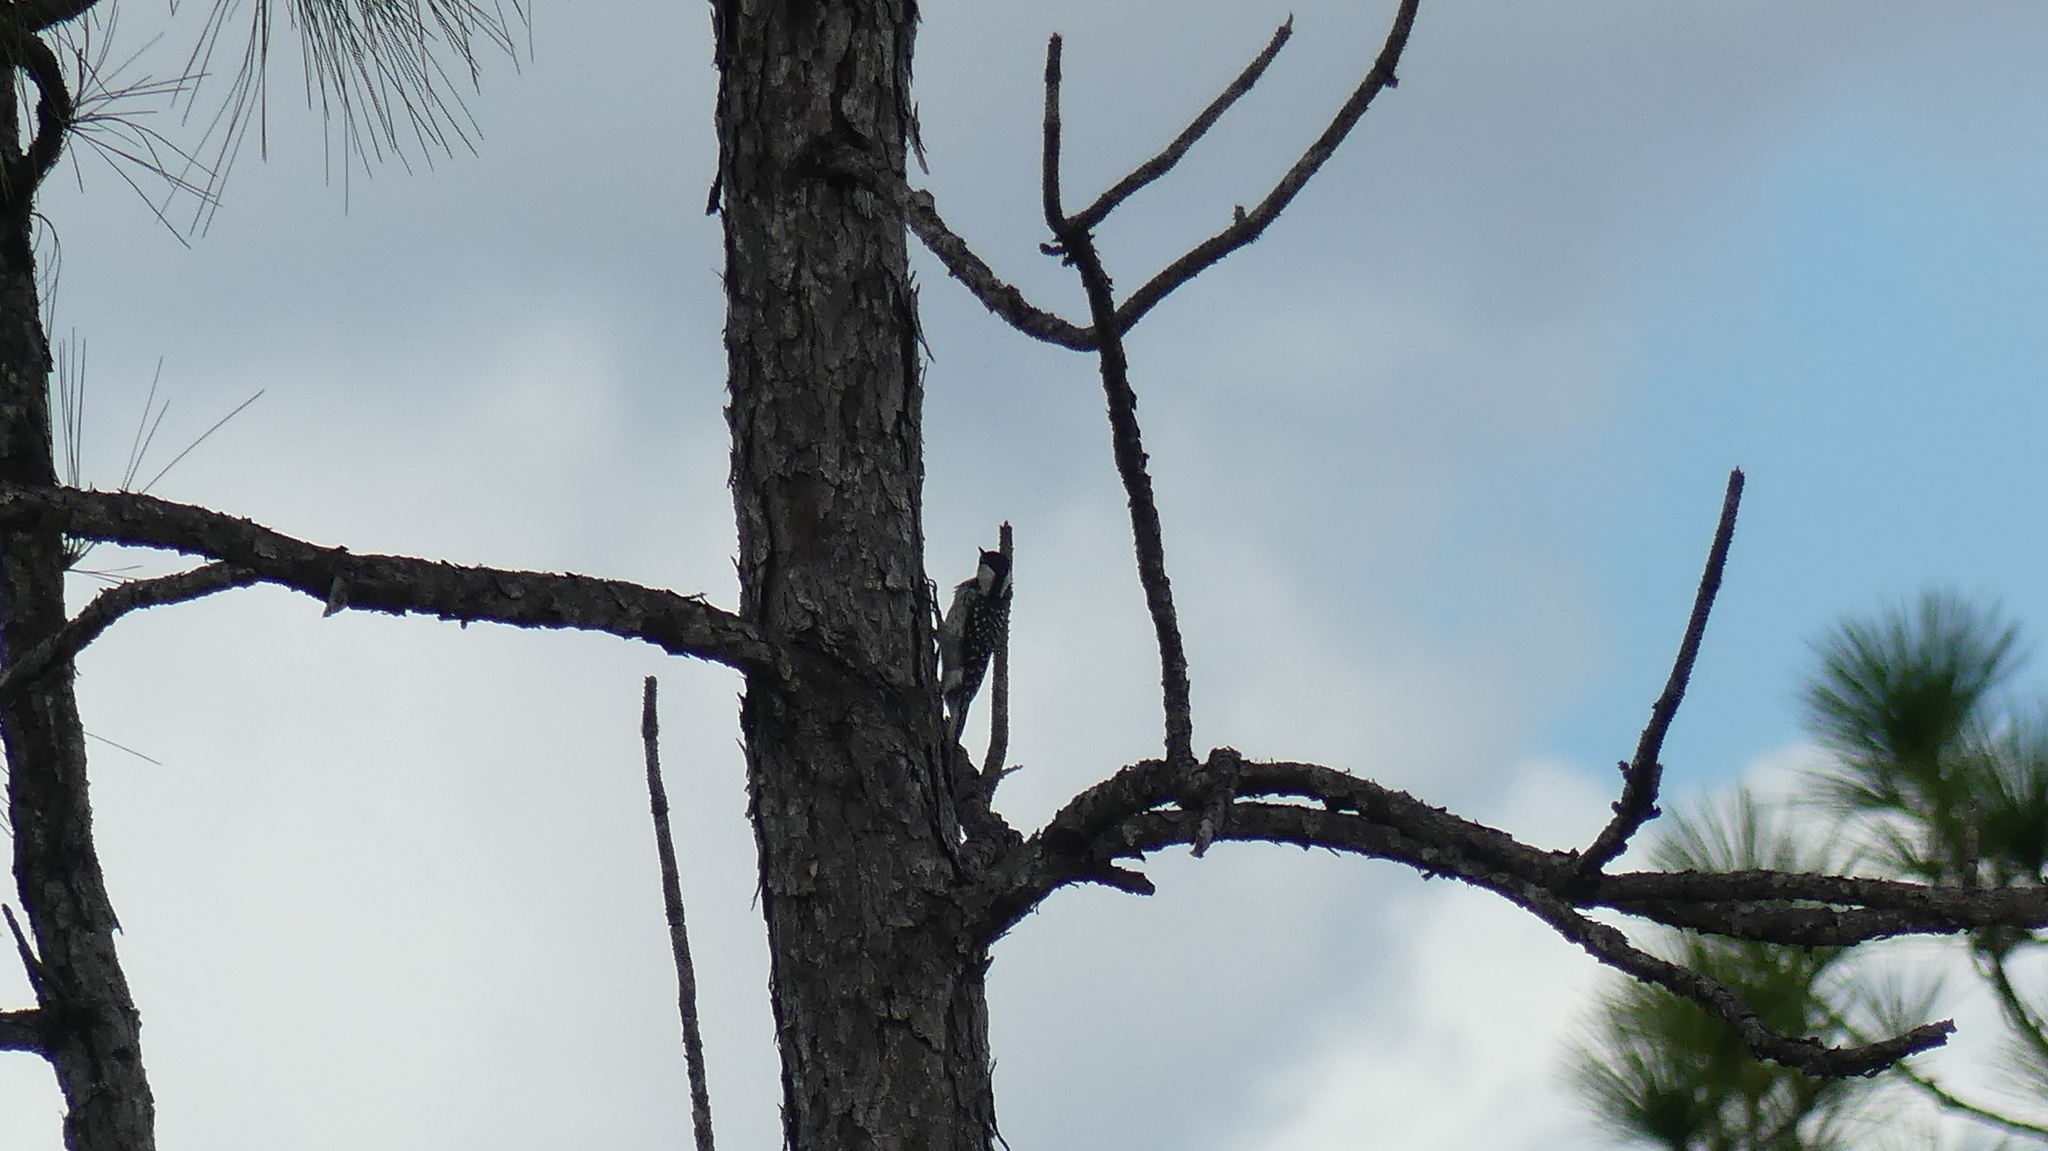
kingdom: Animalia
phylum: Chordata
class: Aves
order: Piciformes
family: Picidae
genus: Leuconotopicus
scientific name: Leuconotopicus borealis
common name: Red-cockaded woodpecker
